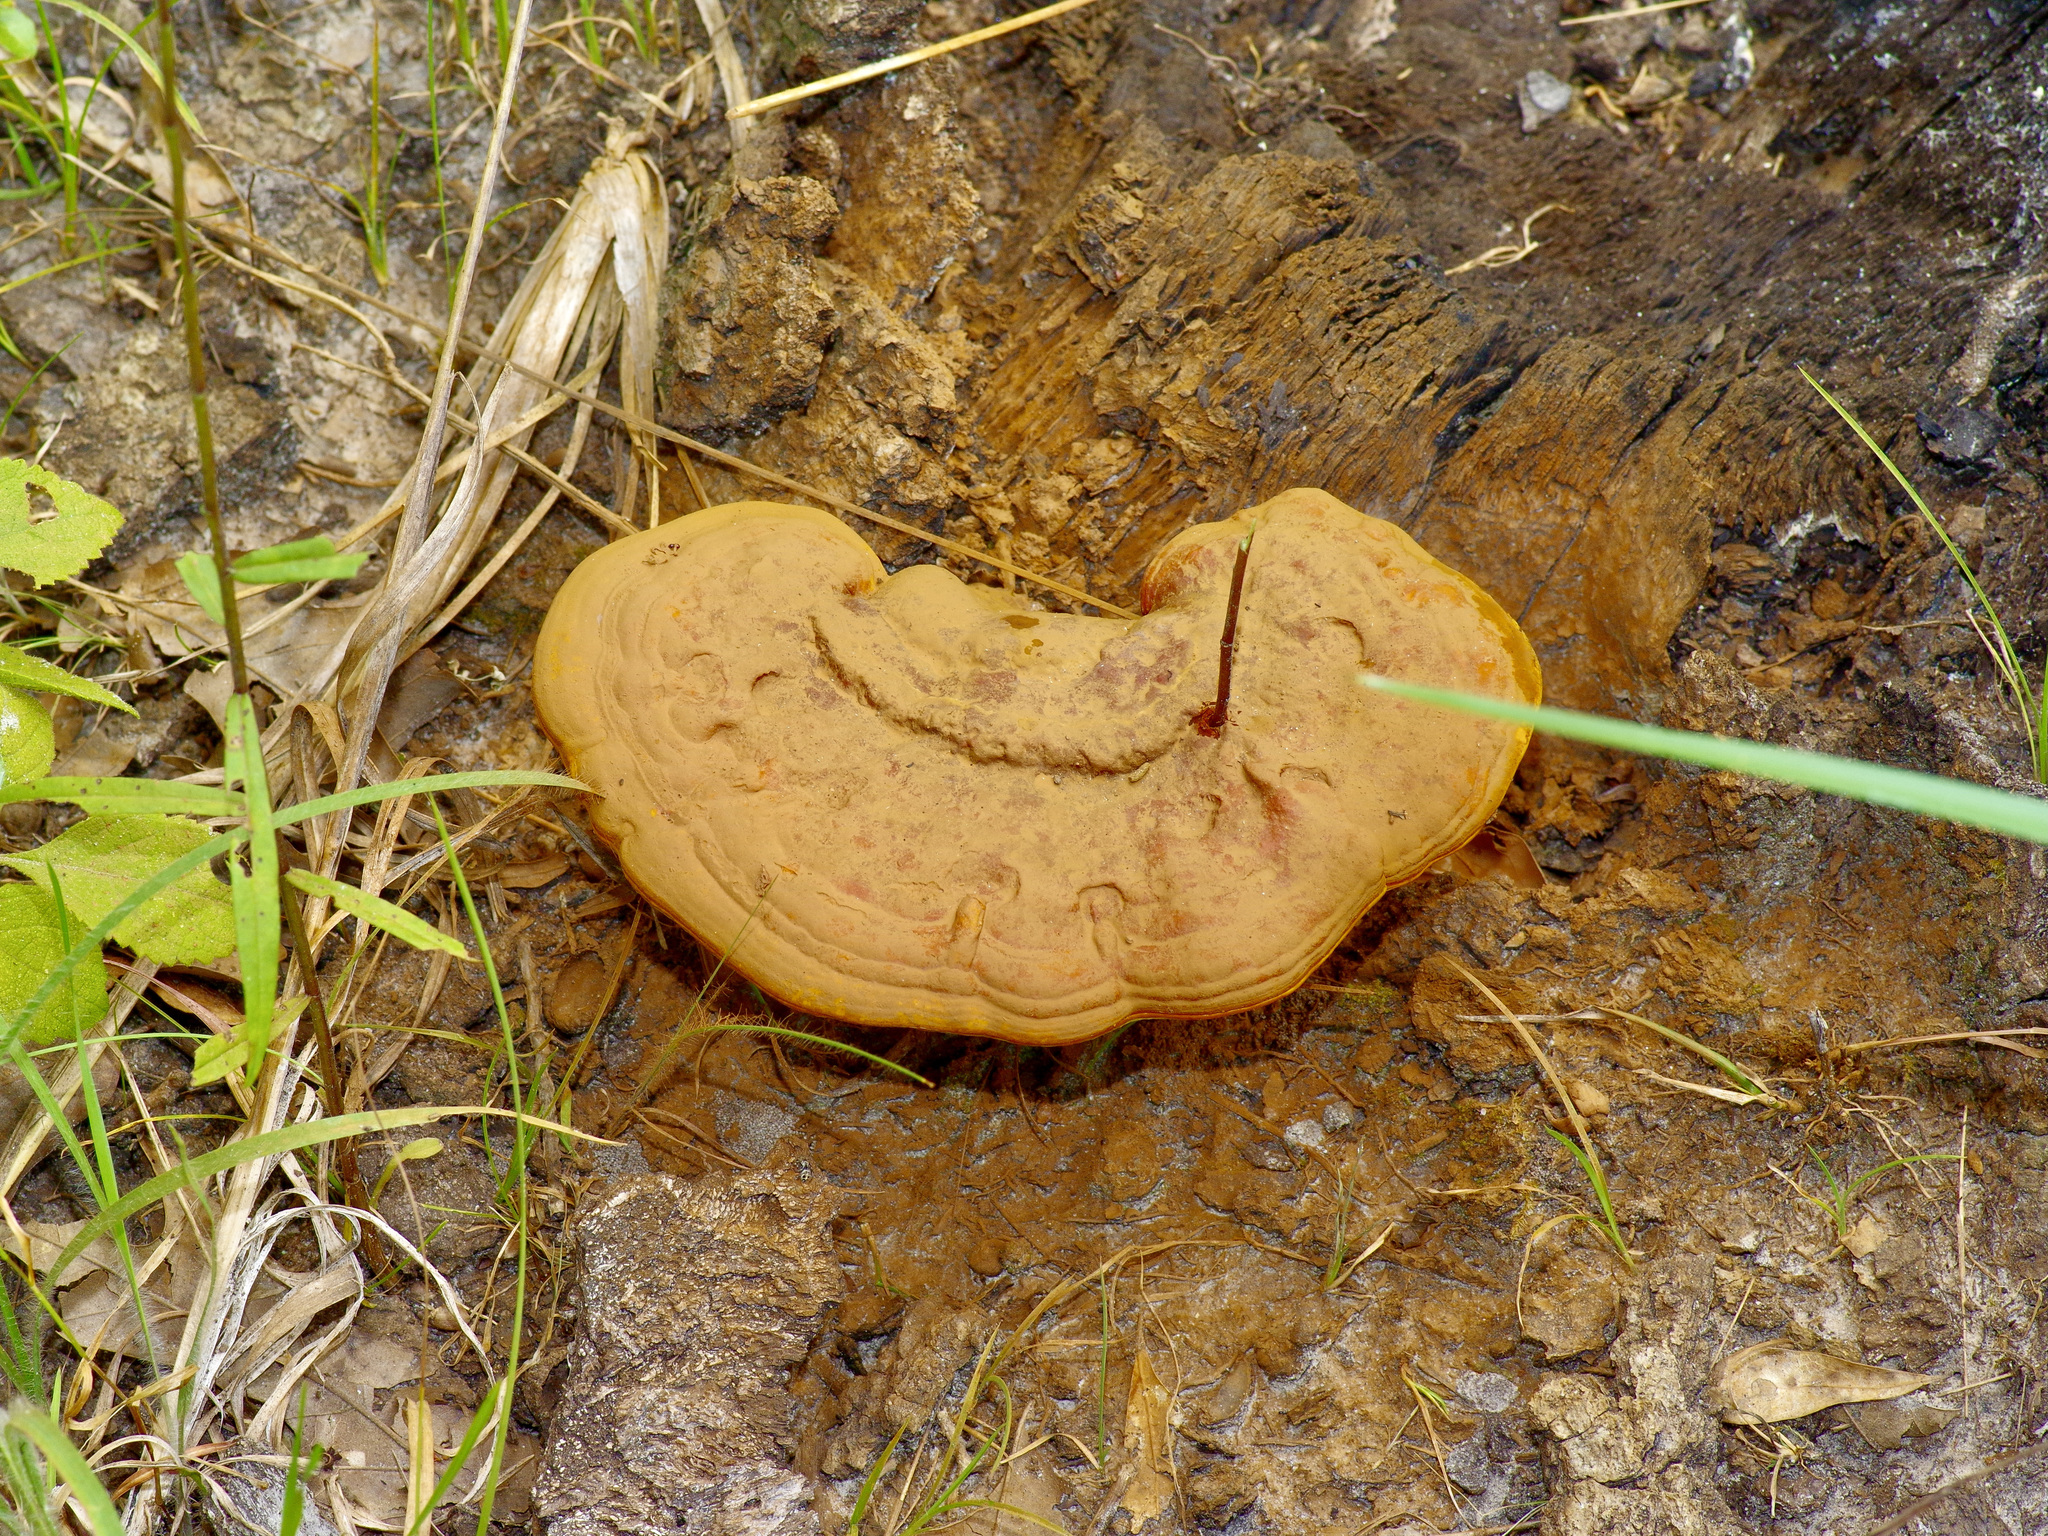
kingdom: Fungi
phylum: Basidiomycota
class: Agaricomycetes
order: Polyporales
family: Polyporaceae
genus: Ganoderma
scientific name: Ganoderma curtisii
